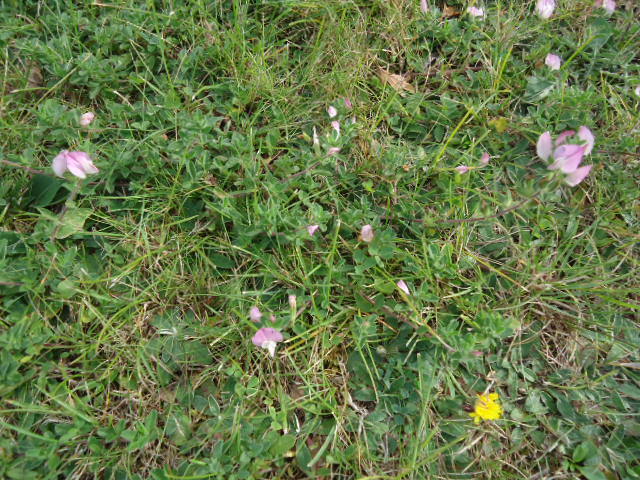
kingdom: Plantae
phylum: Tracheophyta
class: Magnoliopsida
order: Fabales
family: Fabaceae
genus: Ononis
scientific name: Ononis spinosa
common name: Spiny restharrow
